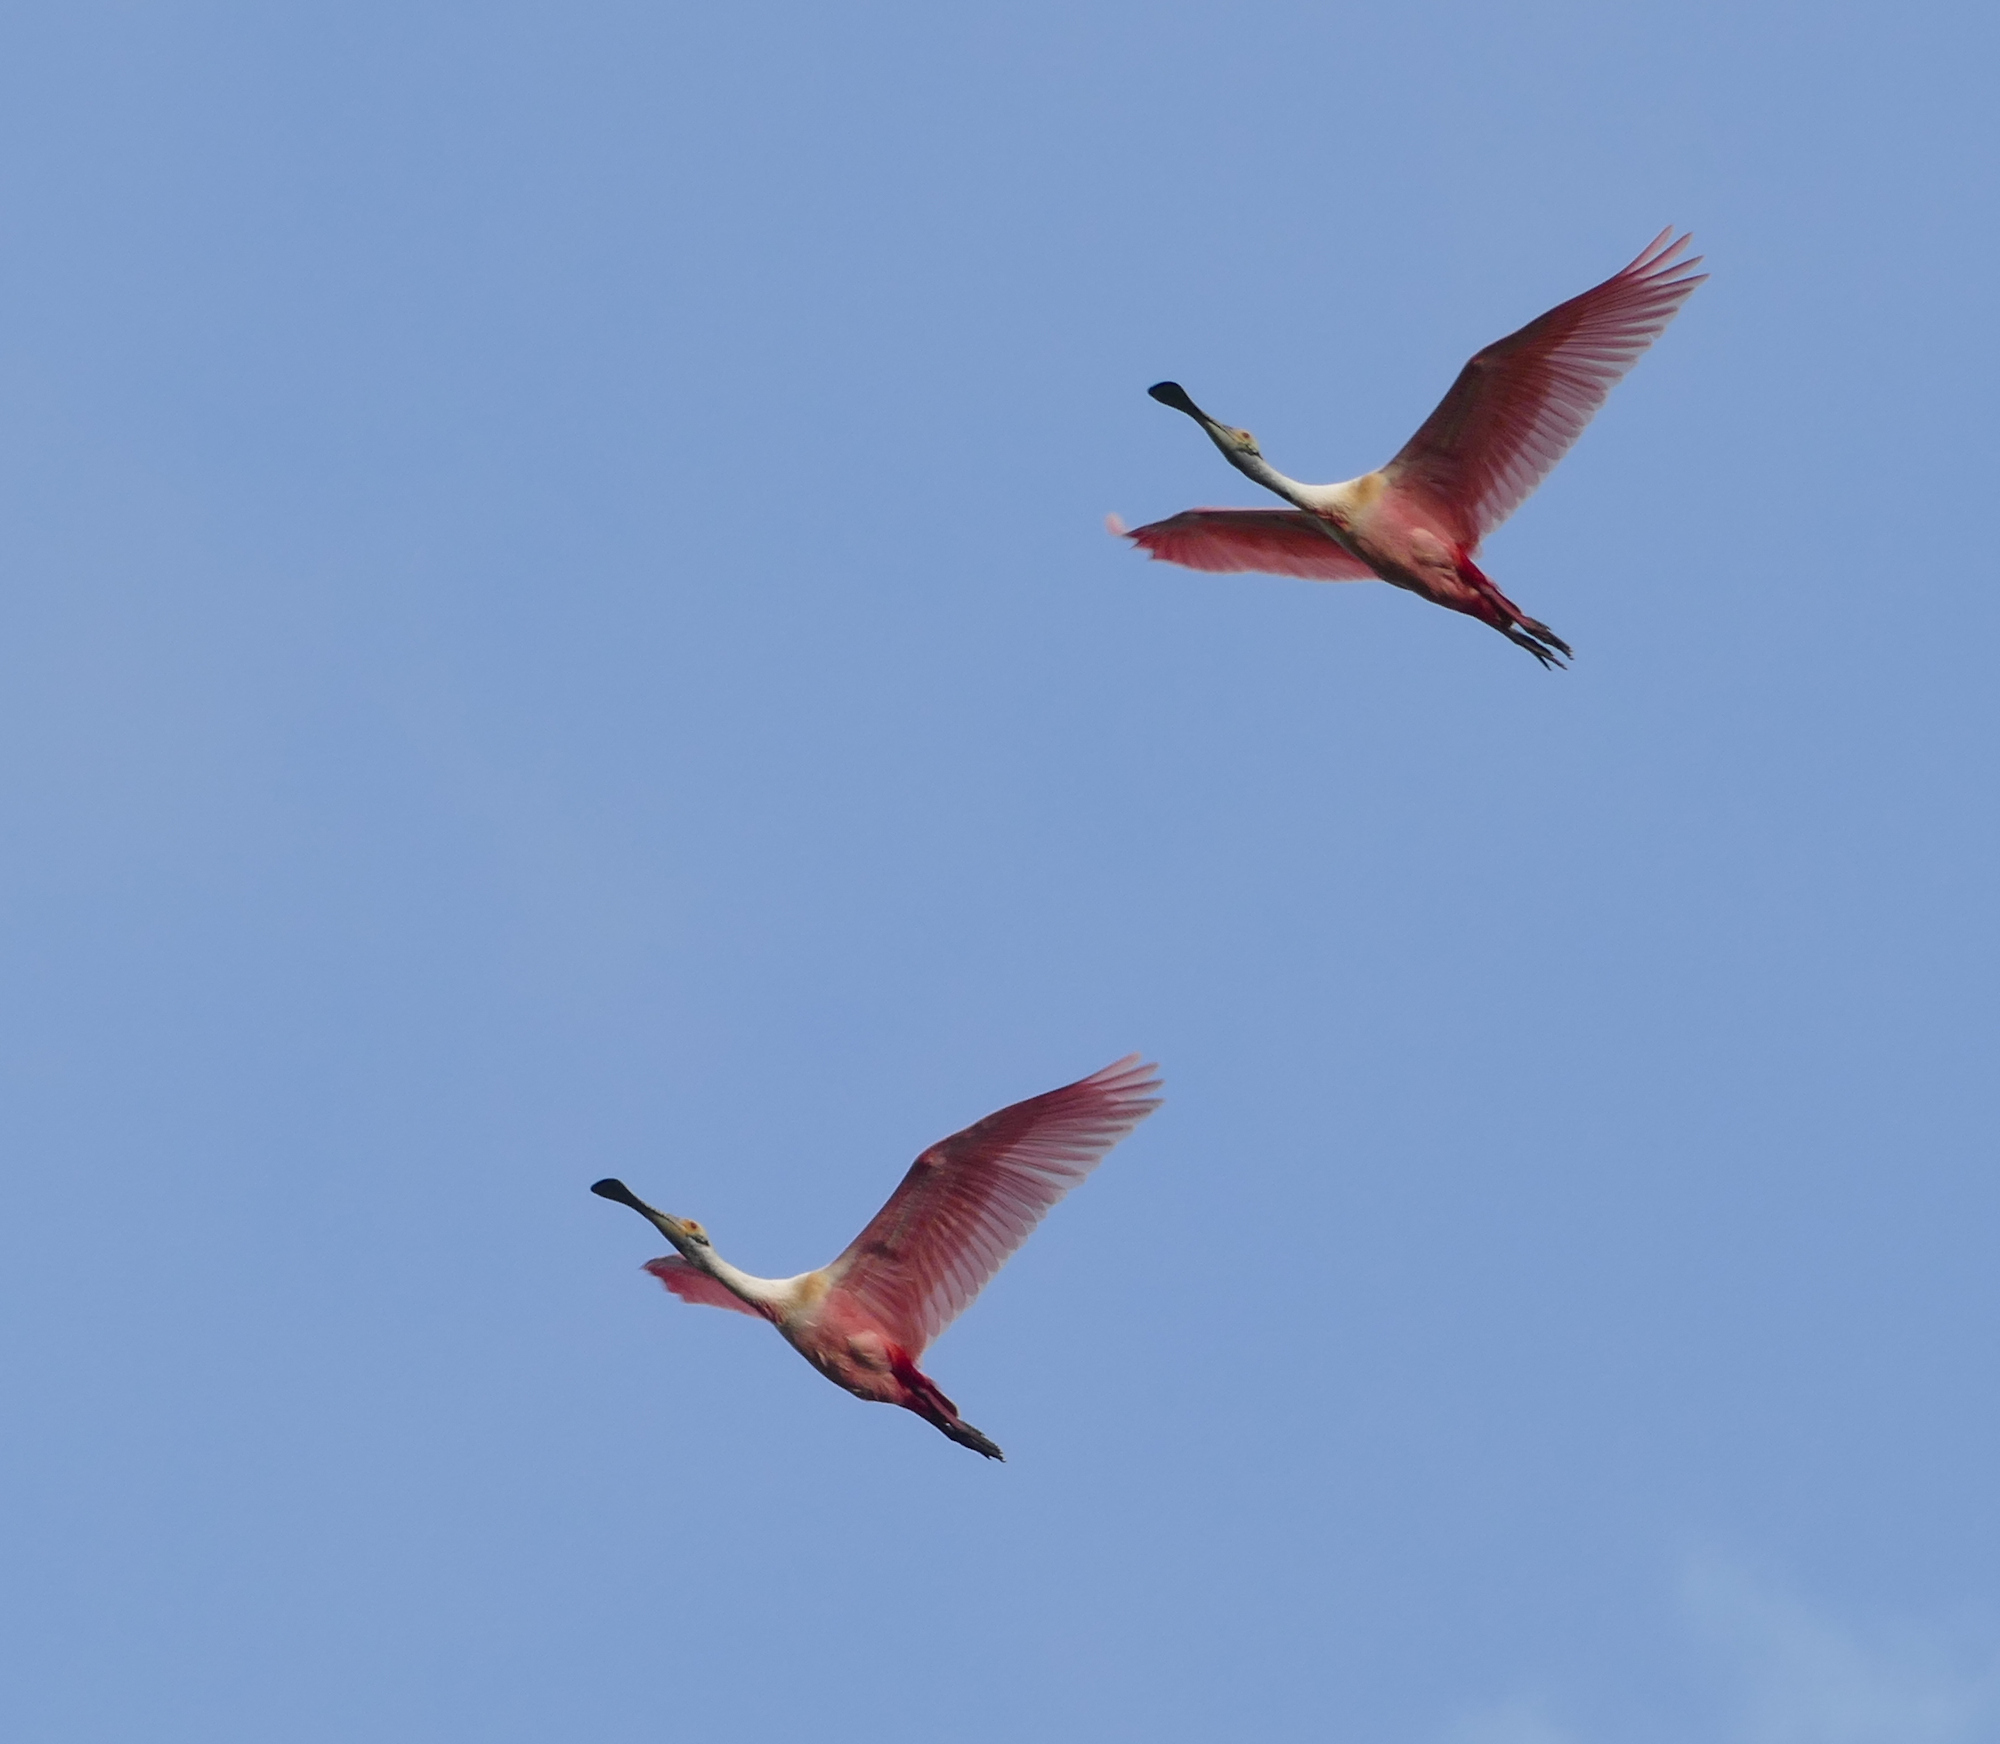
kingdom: Animalia
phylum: Chordata
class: Aves
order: Pelecaniformes
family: Threskiornithidae
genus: Platalea
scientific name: Platalea ajaja
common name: Roseate spoonbill
